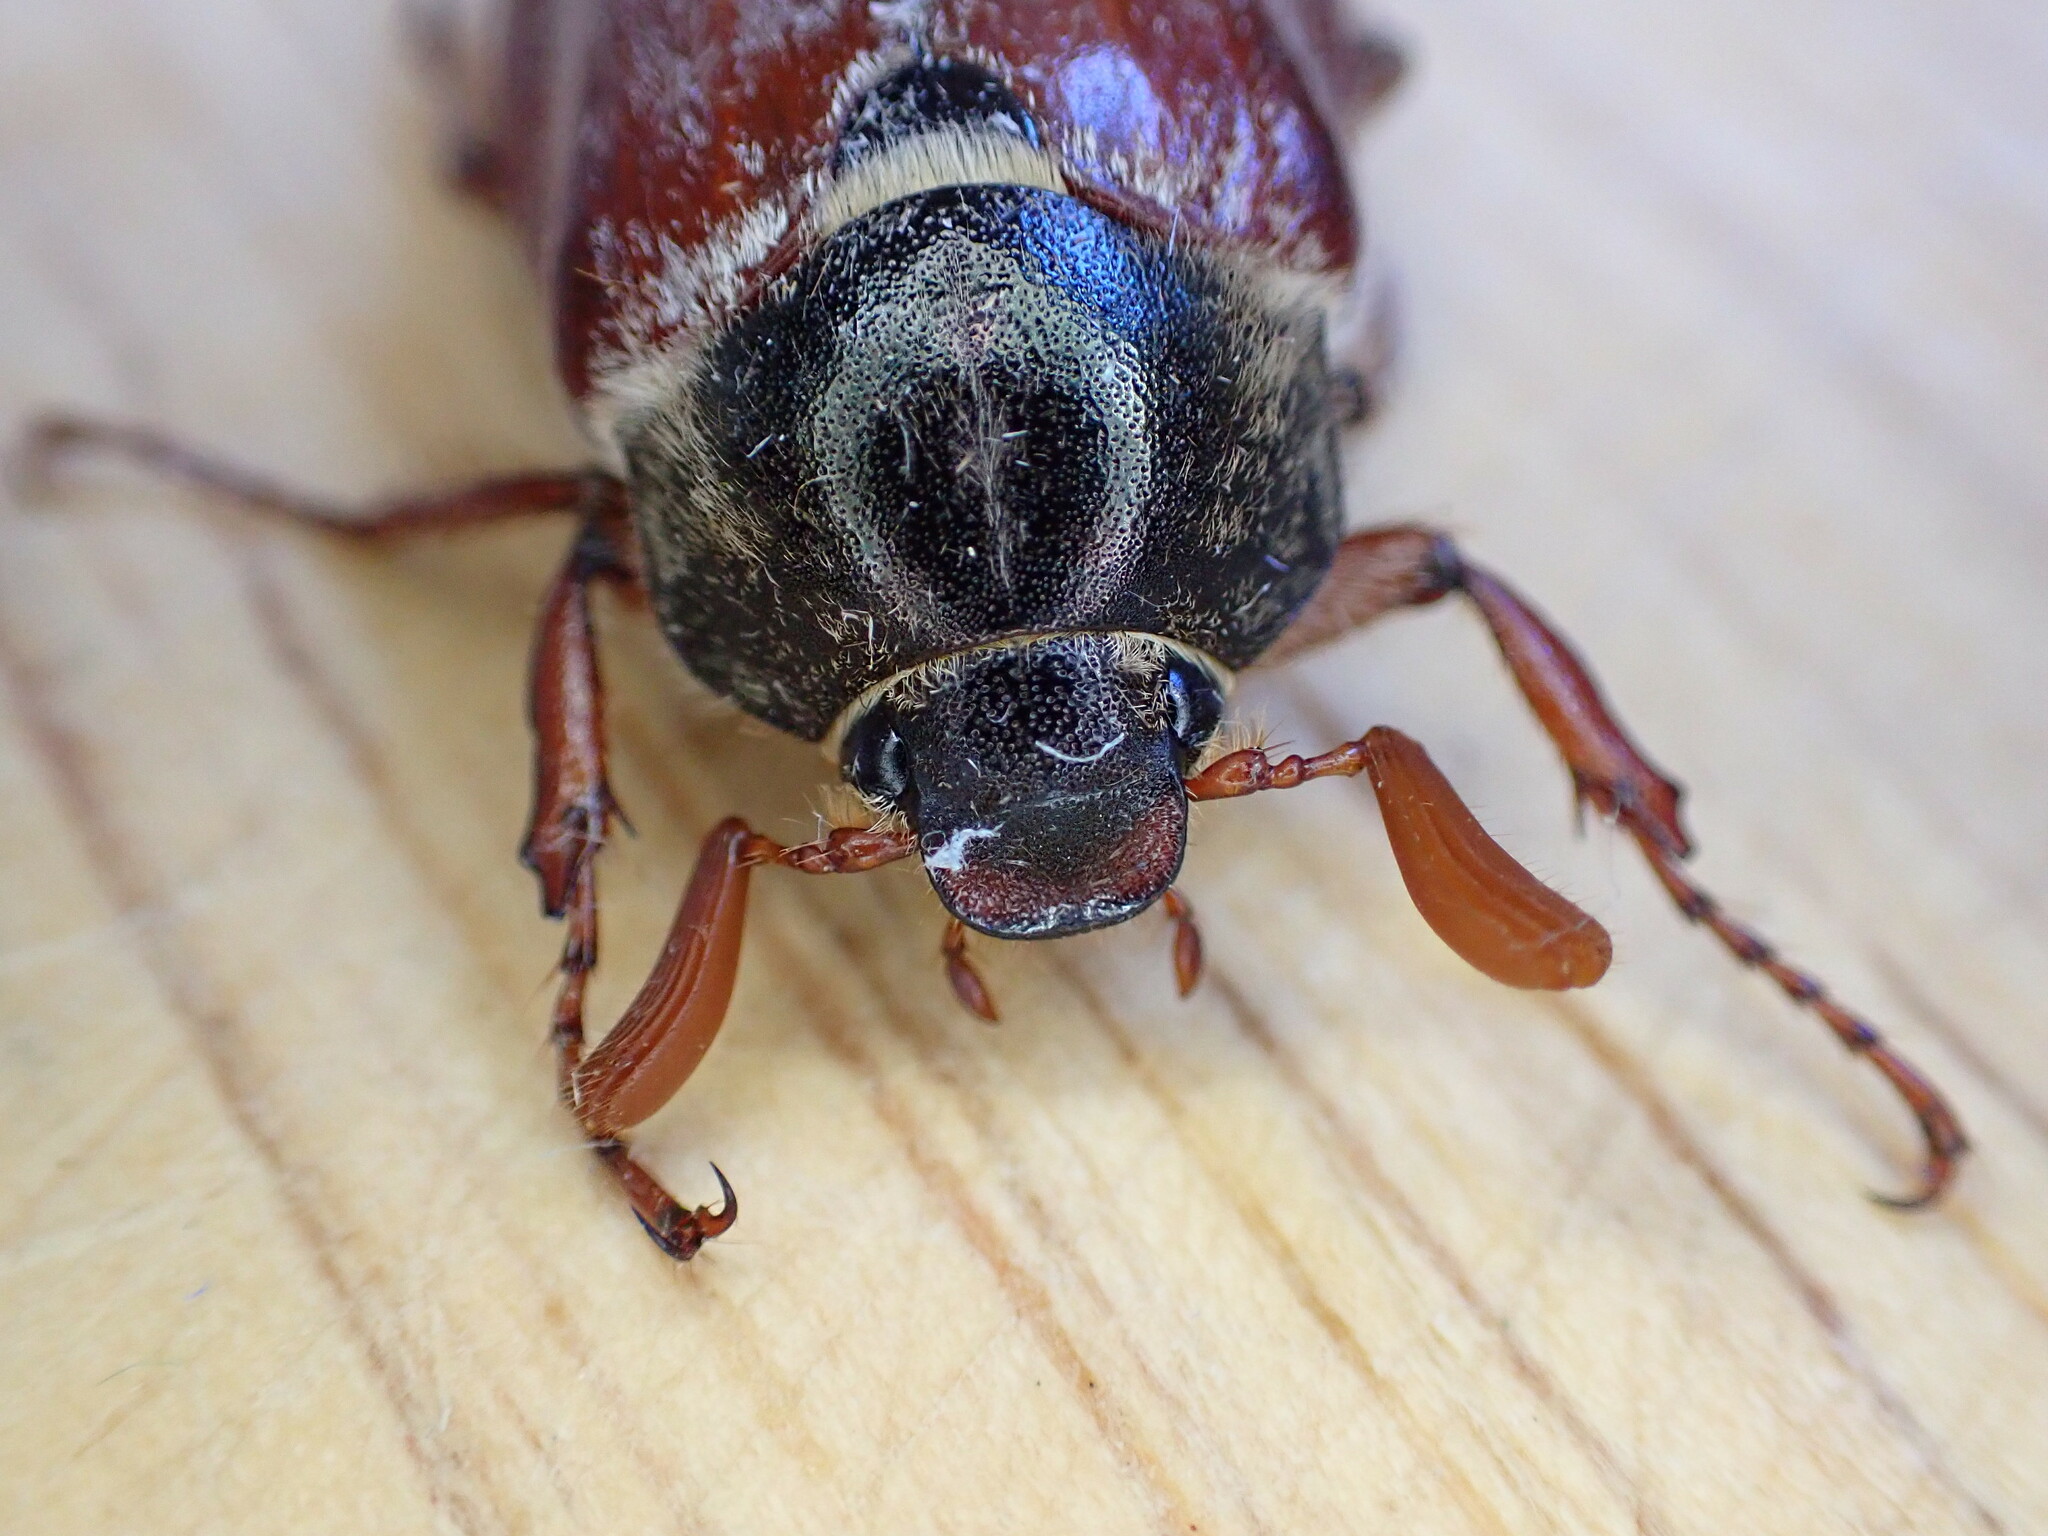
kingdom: Animalia
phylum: Arthropoda
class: Insecta
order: Coleoptera
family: Scarabaeidae
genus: Melolontha
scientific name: Melolontha melolontha
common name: Cockchafer maybeetle
